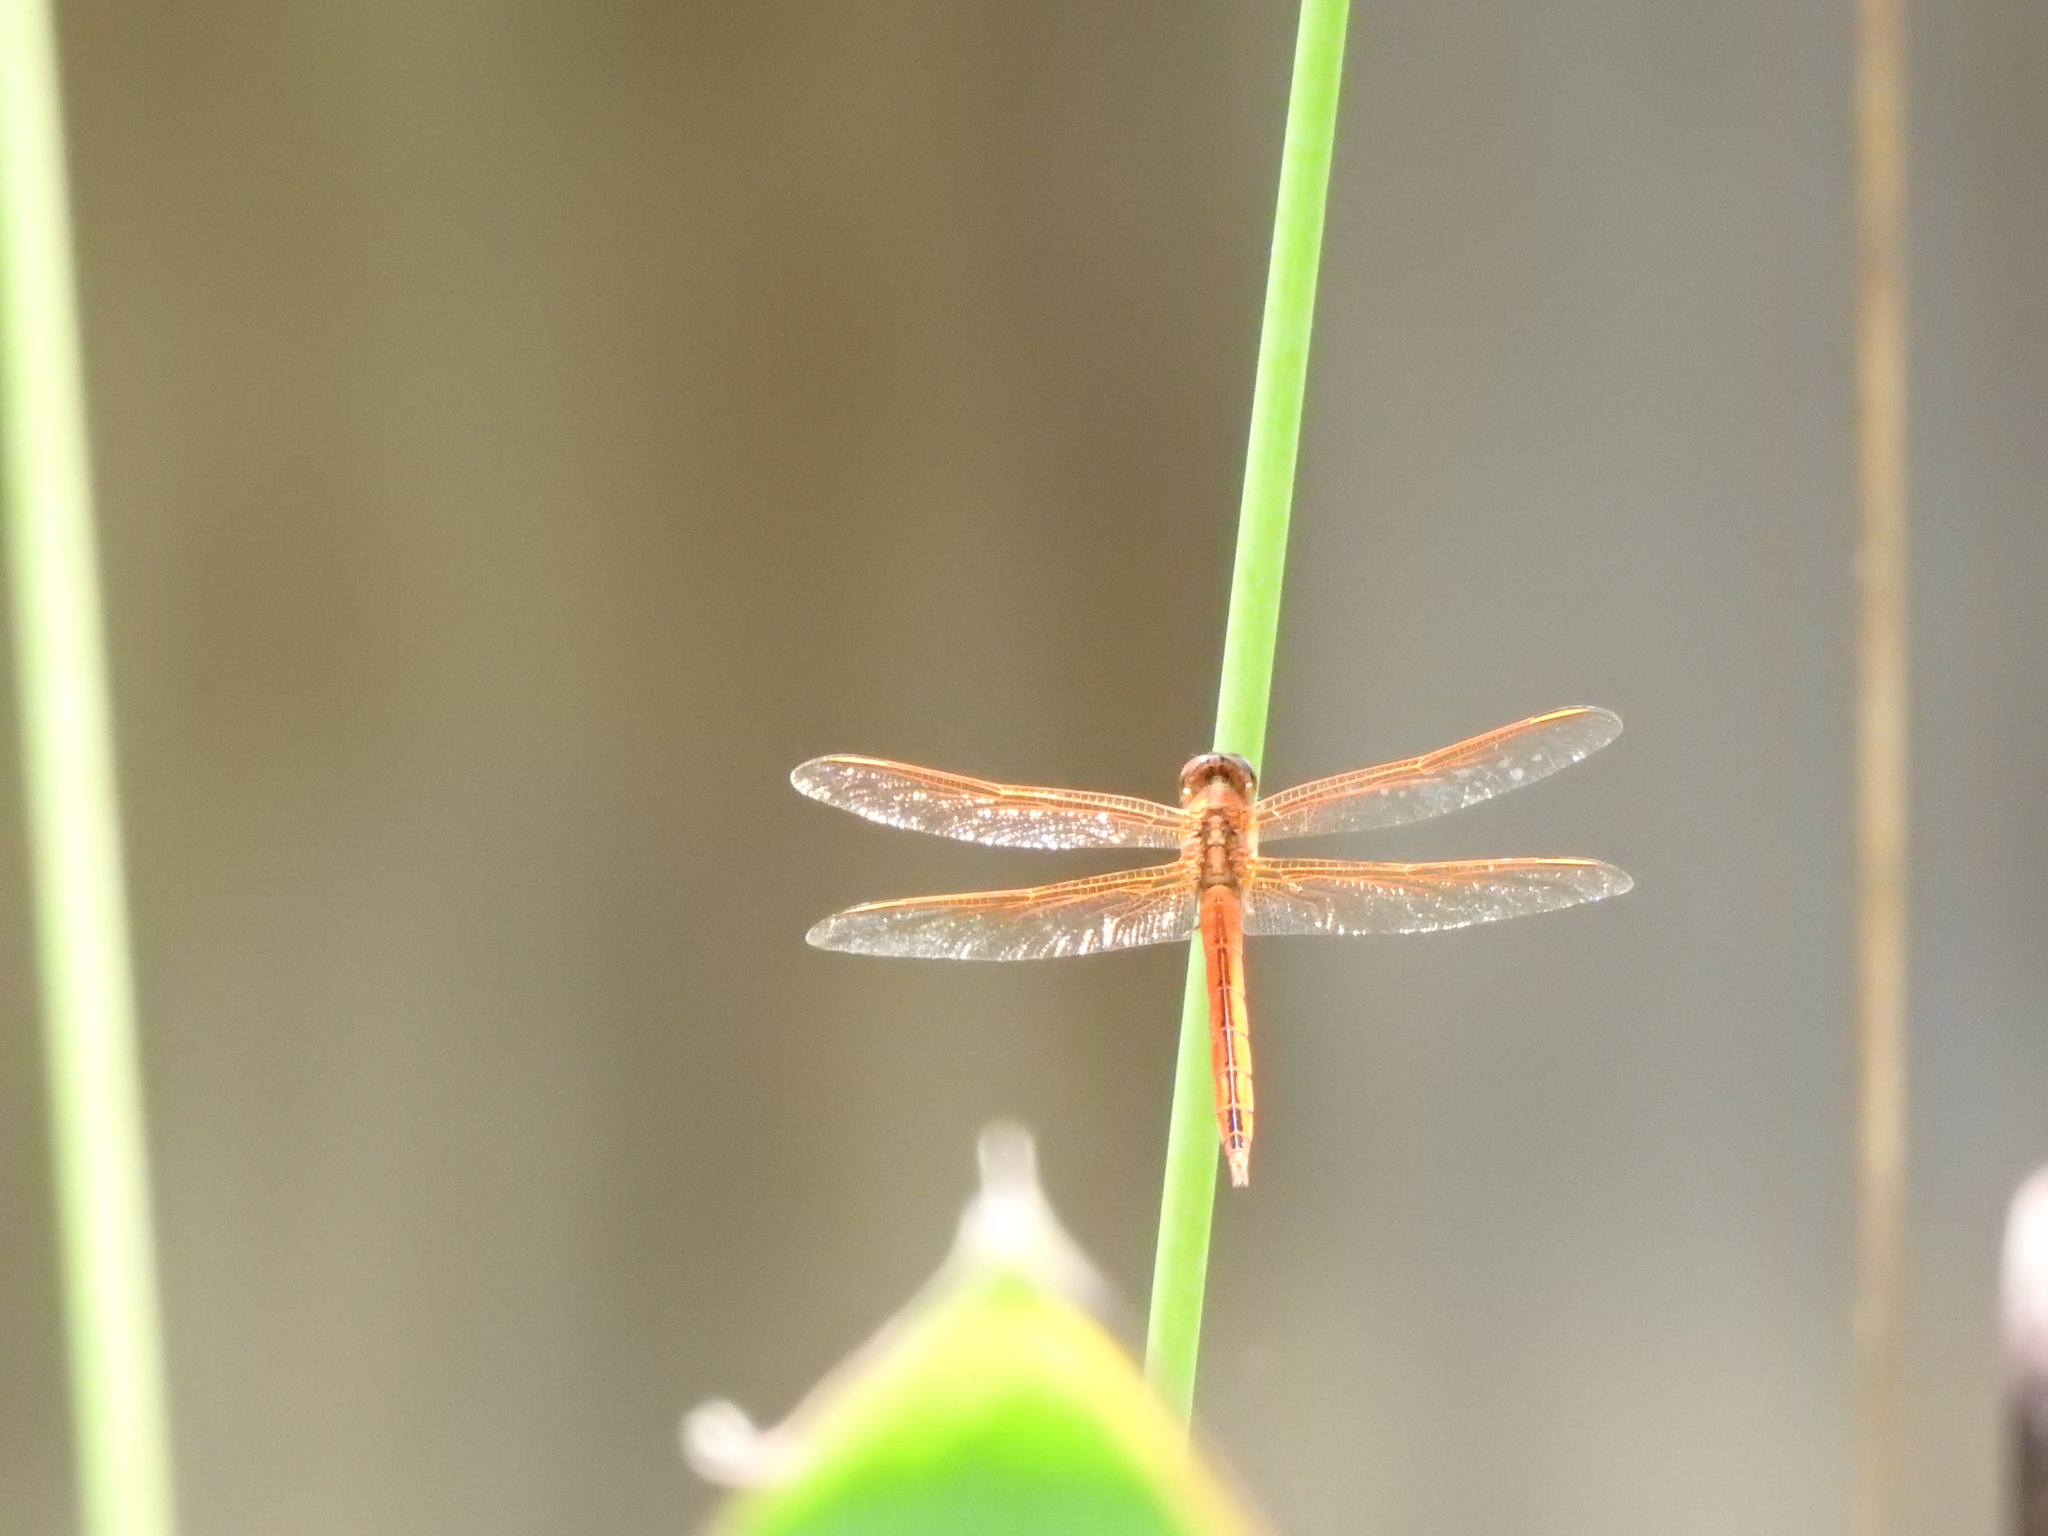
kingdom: Animalia
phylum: Arthropoda
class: Insecta
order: Odonata
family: Libellulidae
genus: Libellula
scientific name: Libellula needhami
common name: Needham's skimmer
